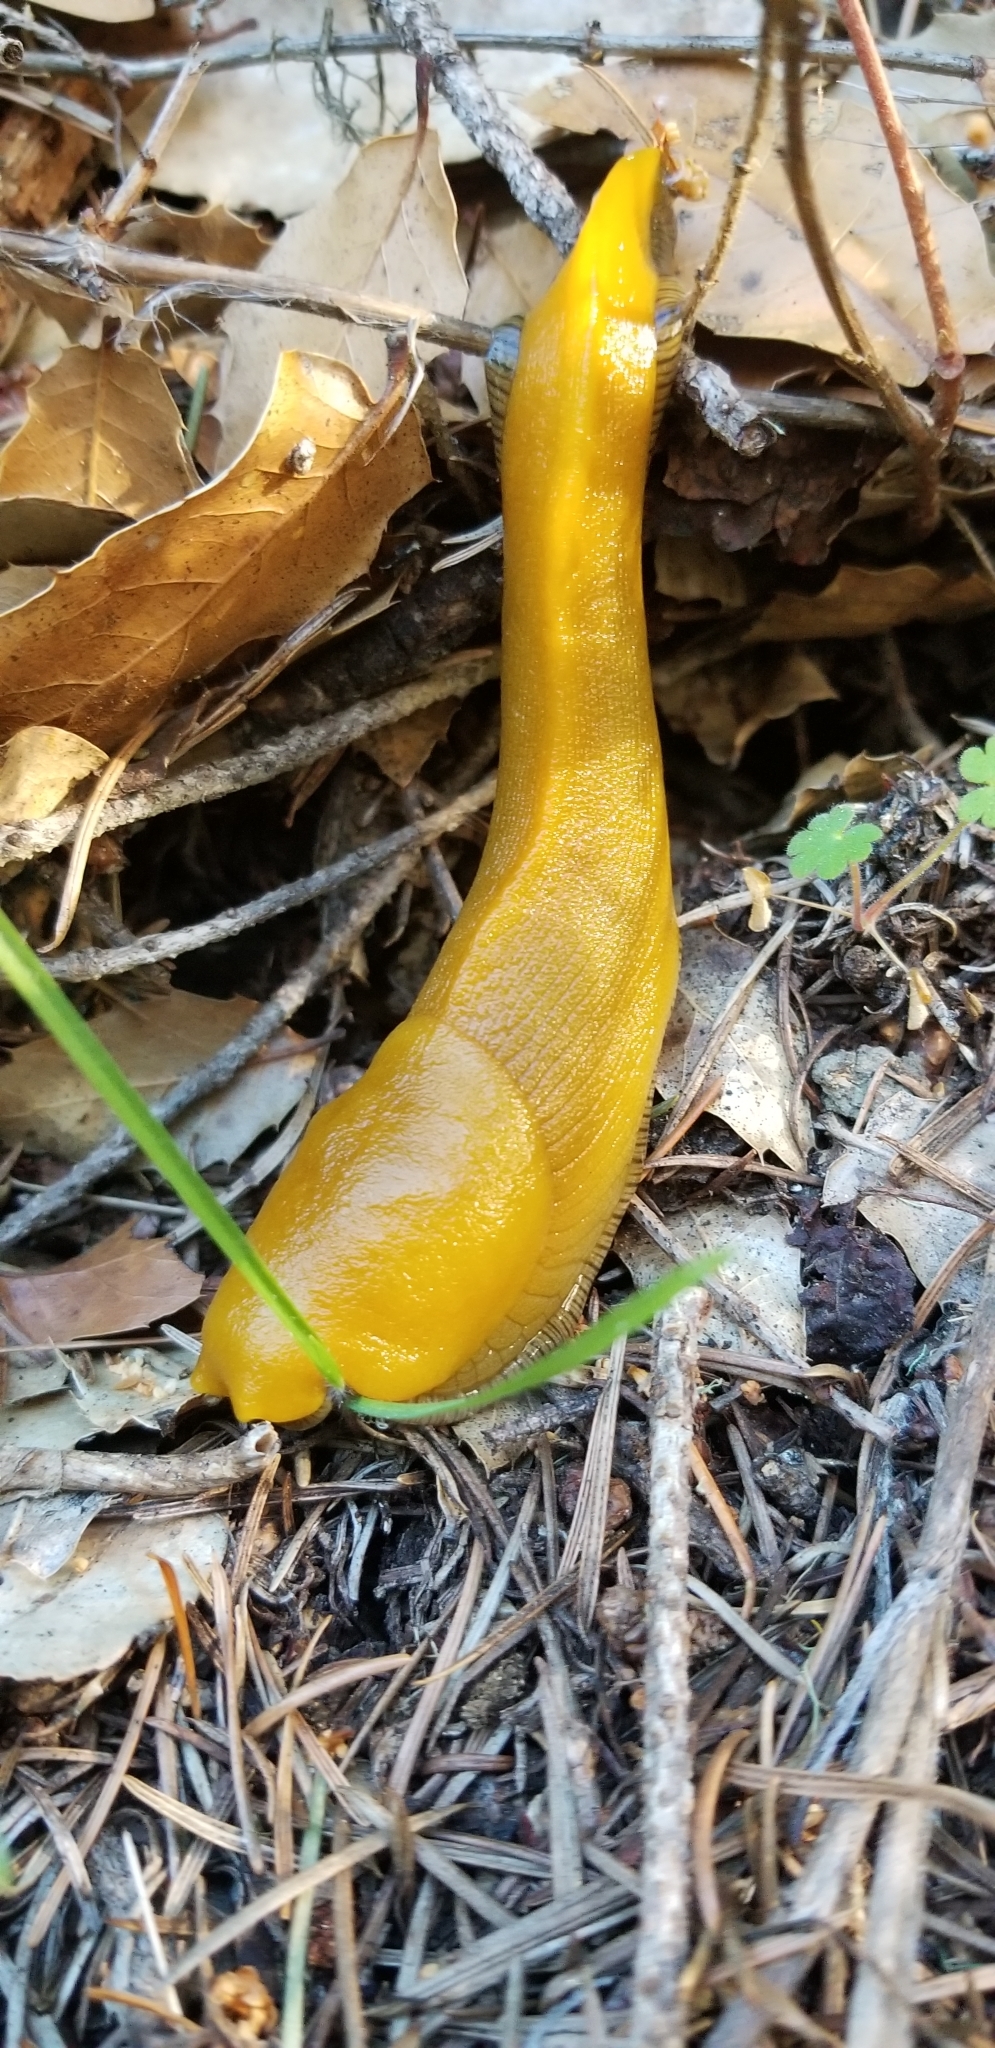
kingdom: Animalia
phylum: Mollusca
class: Gastropoda
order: Stylommatophora
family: Ariolimacidae
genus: Ariolimax
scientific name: Ariolimax californicus
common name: California banana slug
